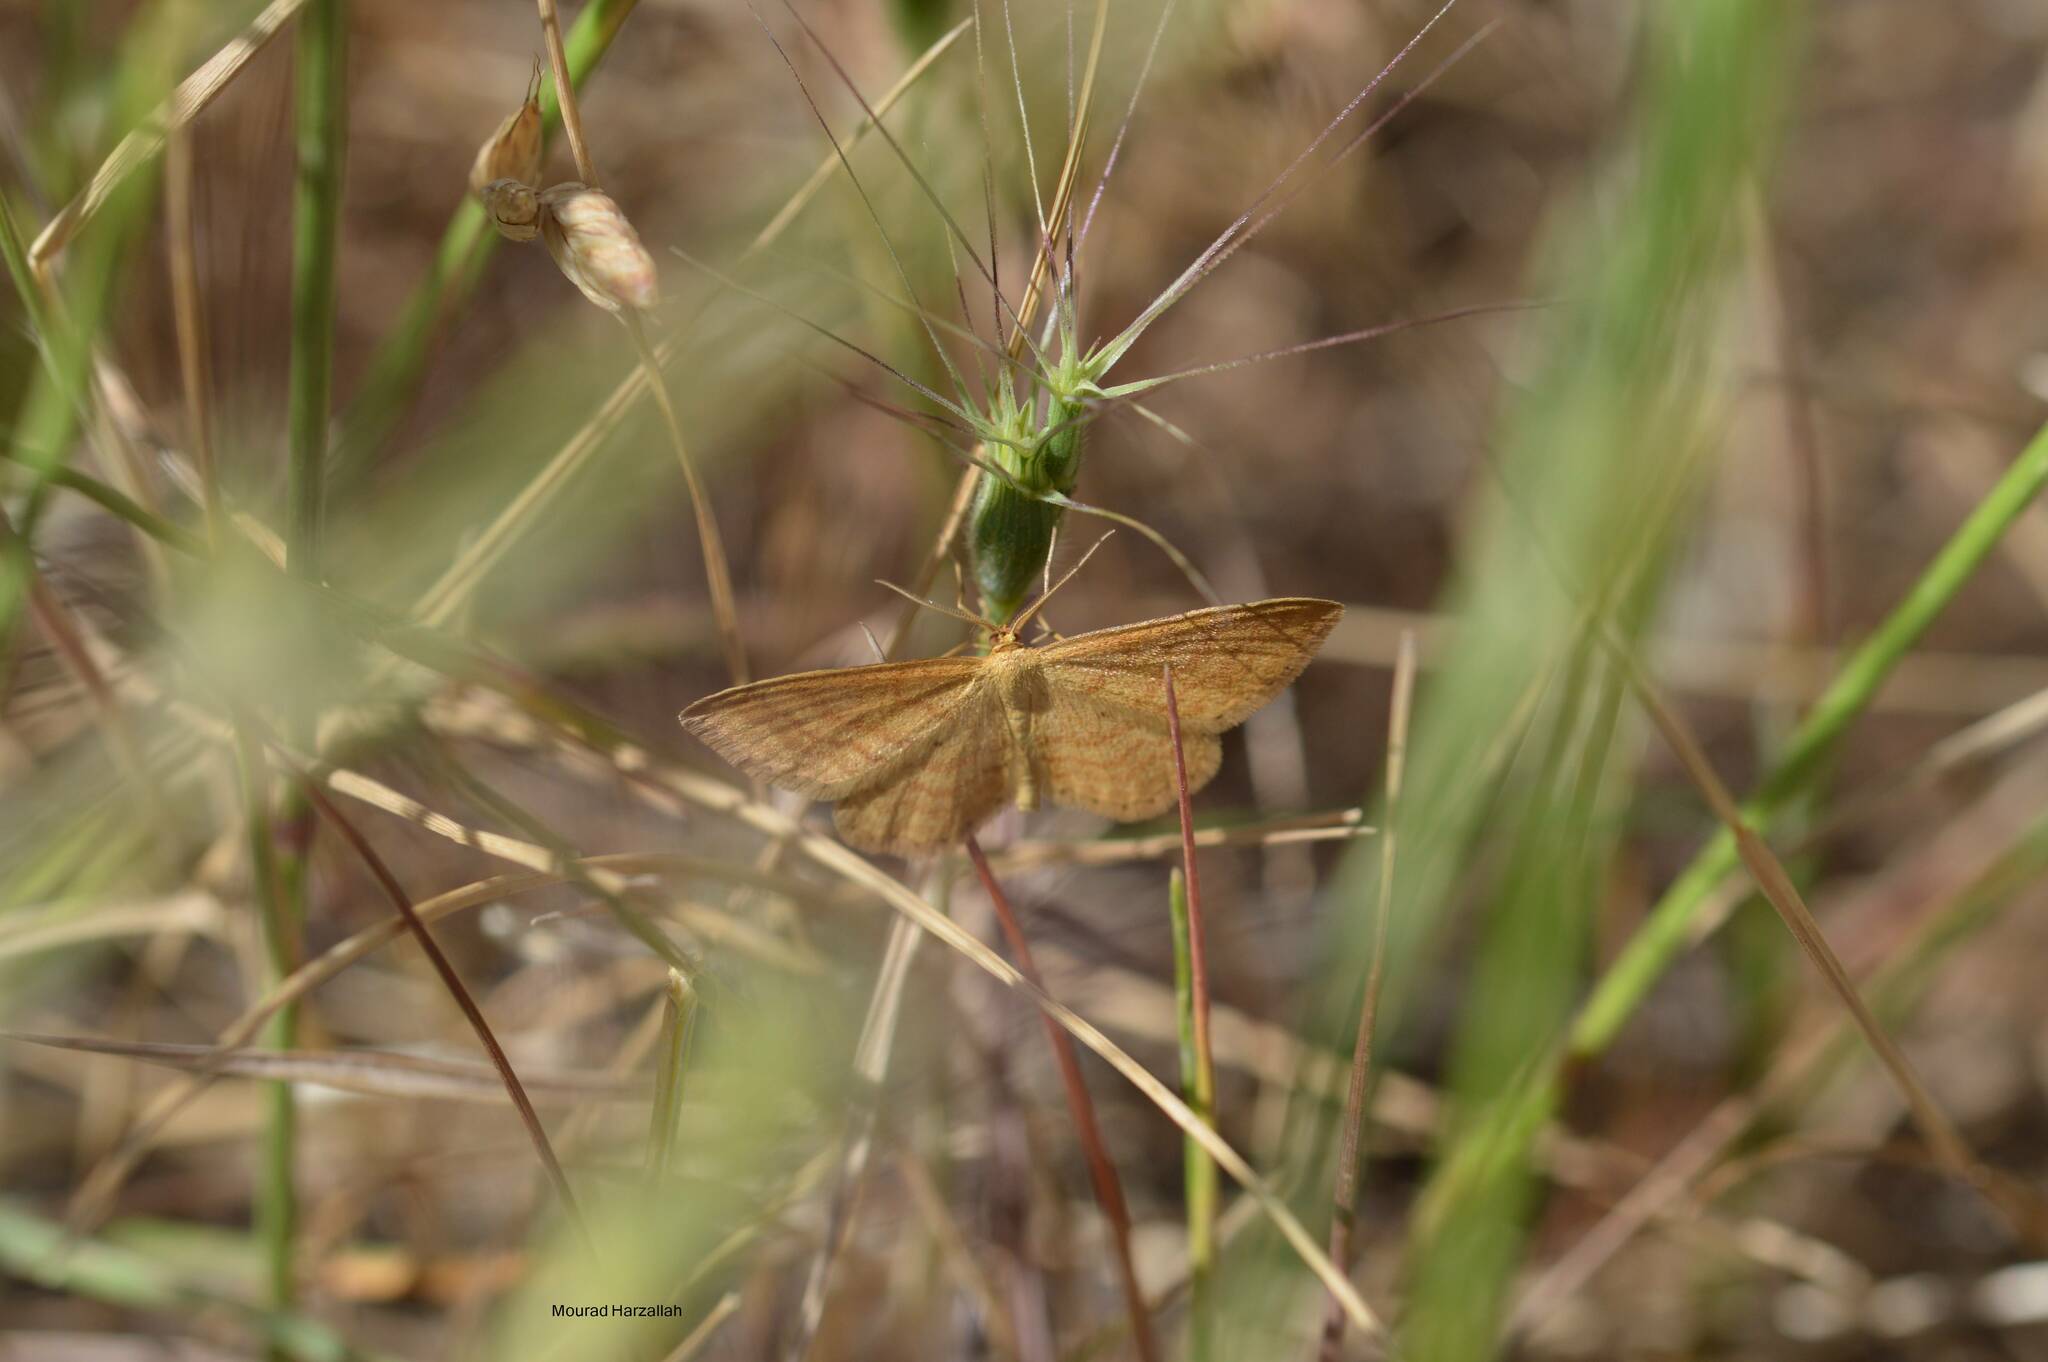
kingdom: Animalia
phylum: Arthropoda
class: Insecta
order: Lepidoptera
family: Geometridae
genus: Idaea
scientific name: Idaea ochrata
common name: Bright wave
